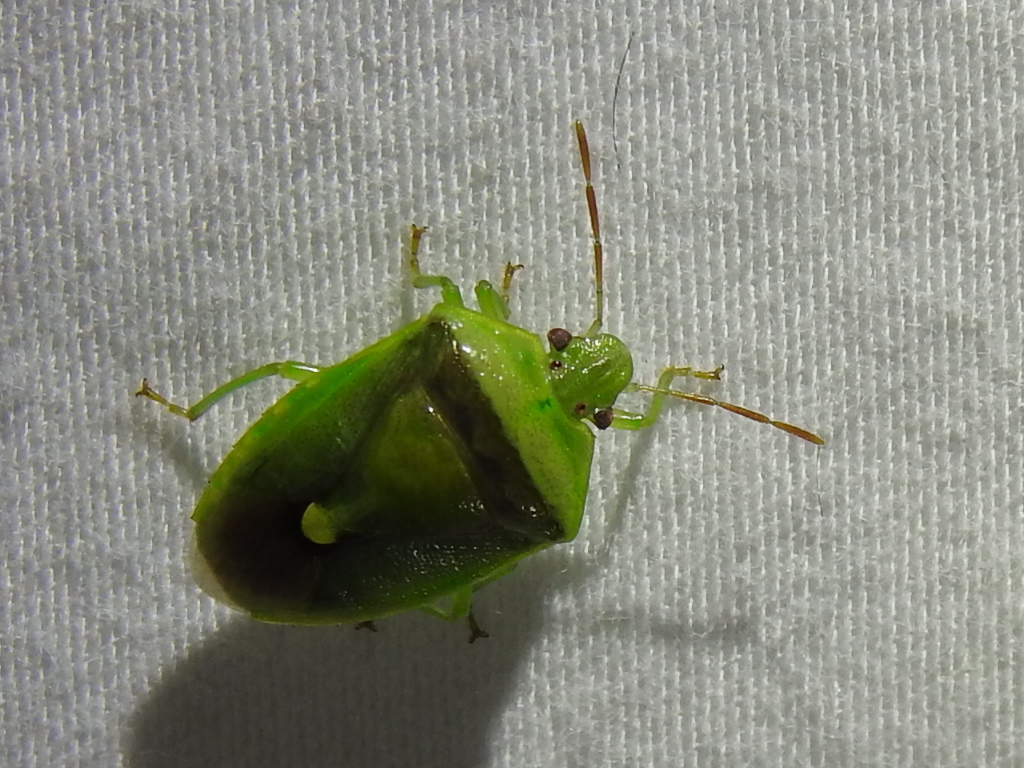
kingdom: Animalia
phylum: Arthropoda
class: Insecta
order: Hemiptera
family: Pentatomidae
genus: Banasa
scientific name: Banasa dimidiata
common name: Green burgundy stink bug
